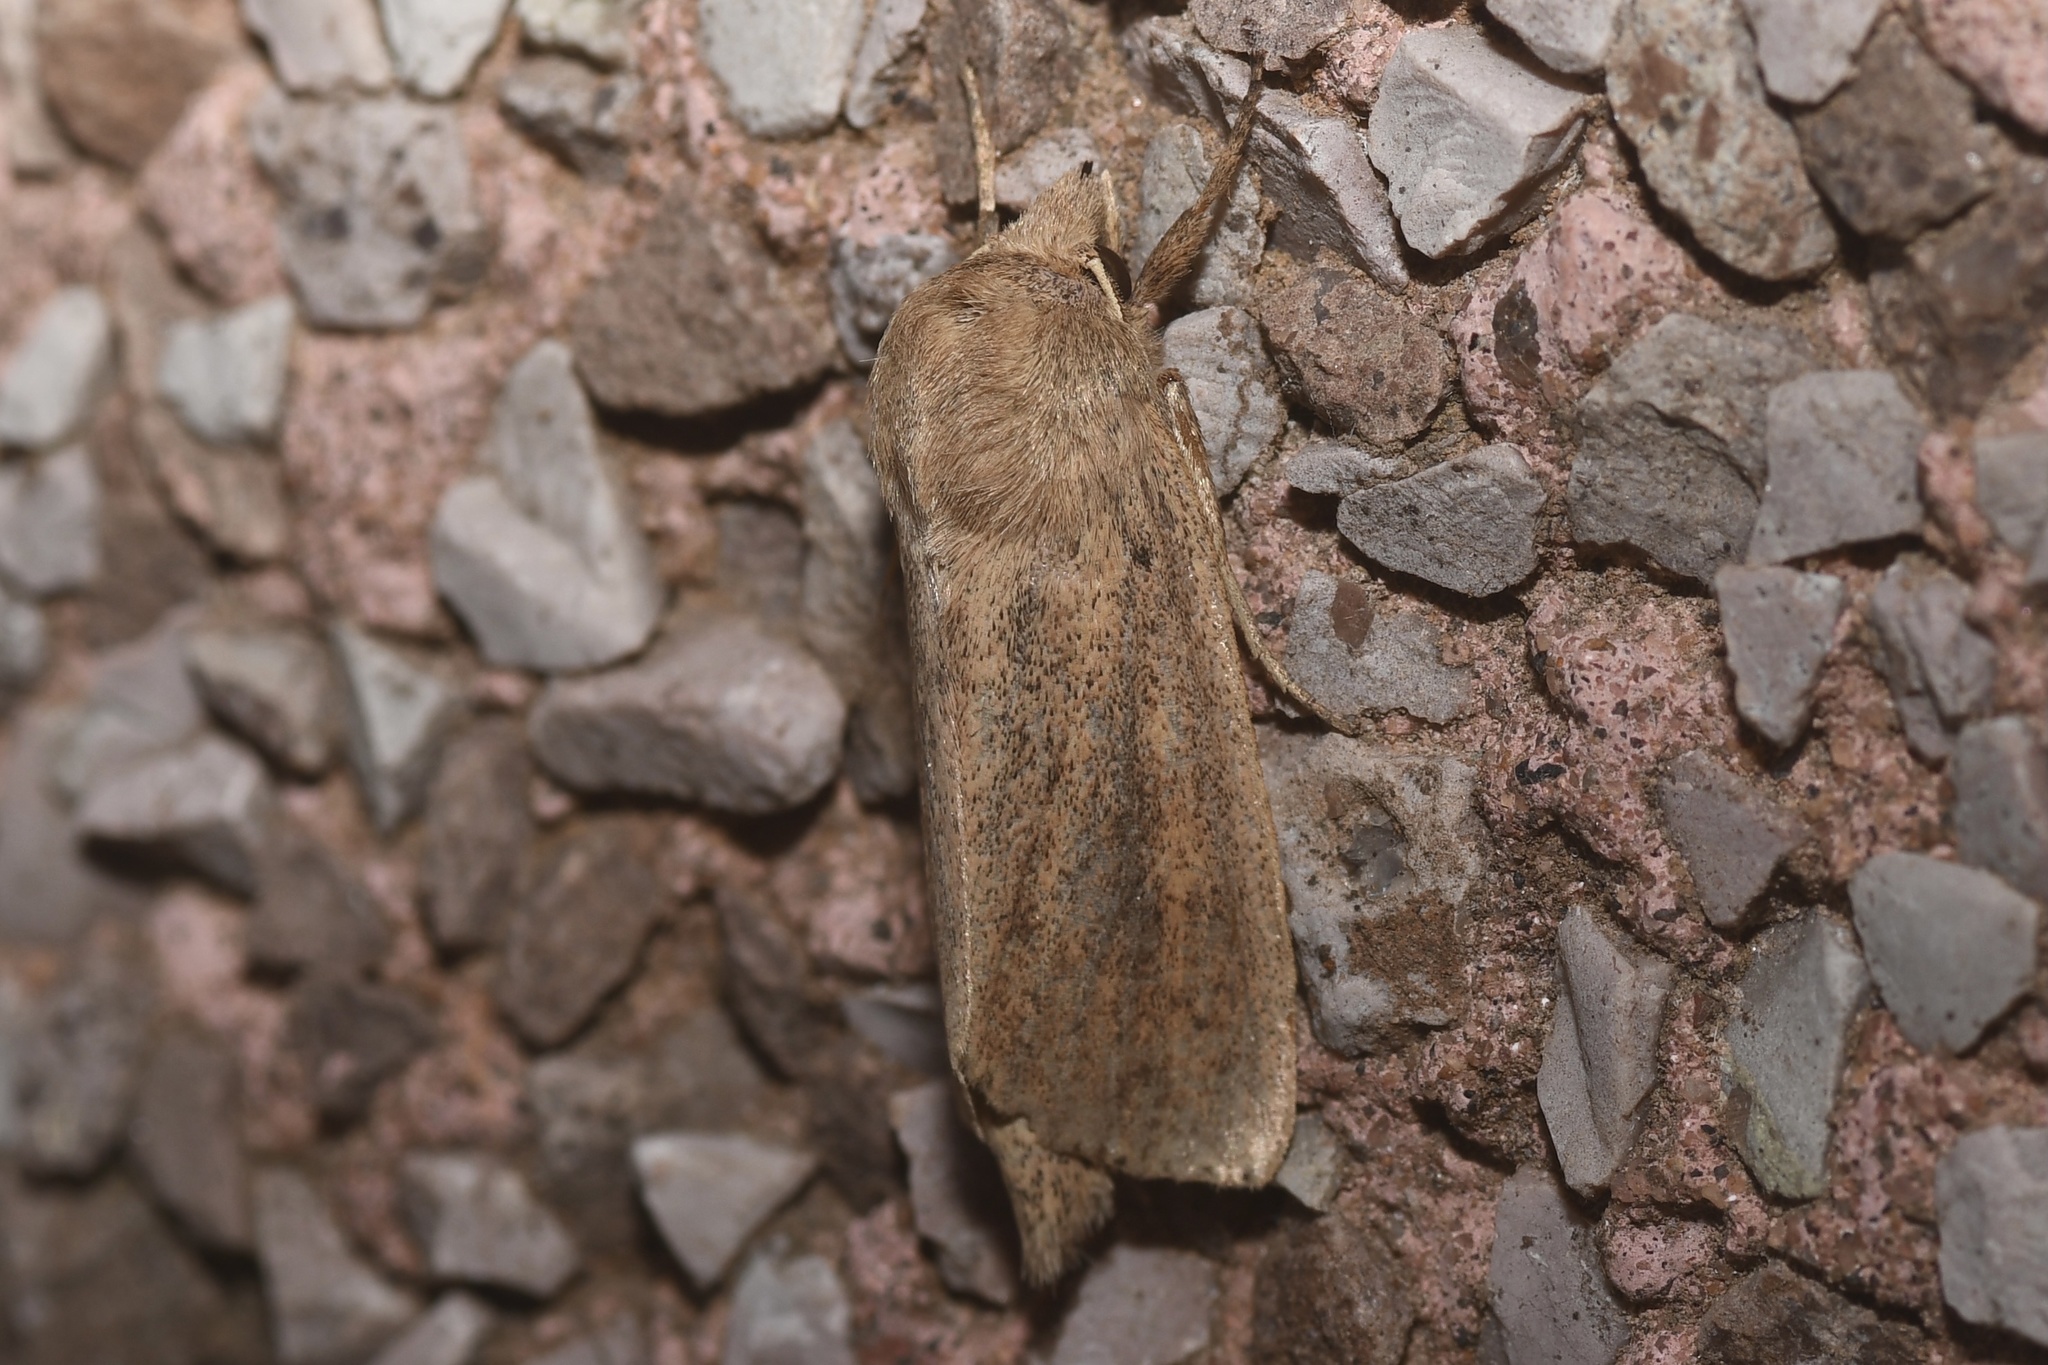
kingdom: Animalia
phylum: Arthropoda
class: Insecta
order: Lepidoptera
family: Noctuidae
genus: Globia
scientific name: Globia oblonga
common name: Oblong sedge borer moth
